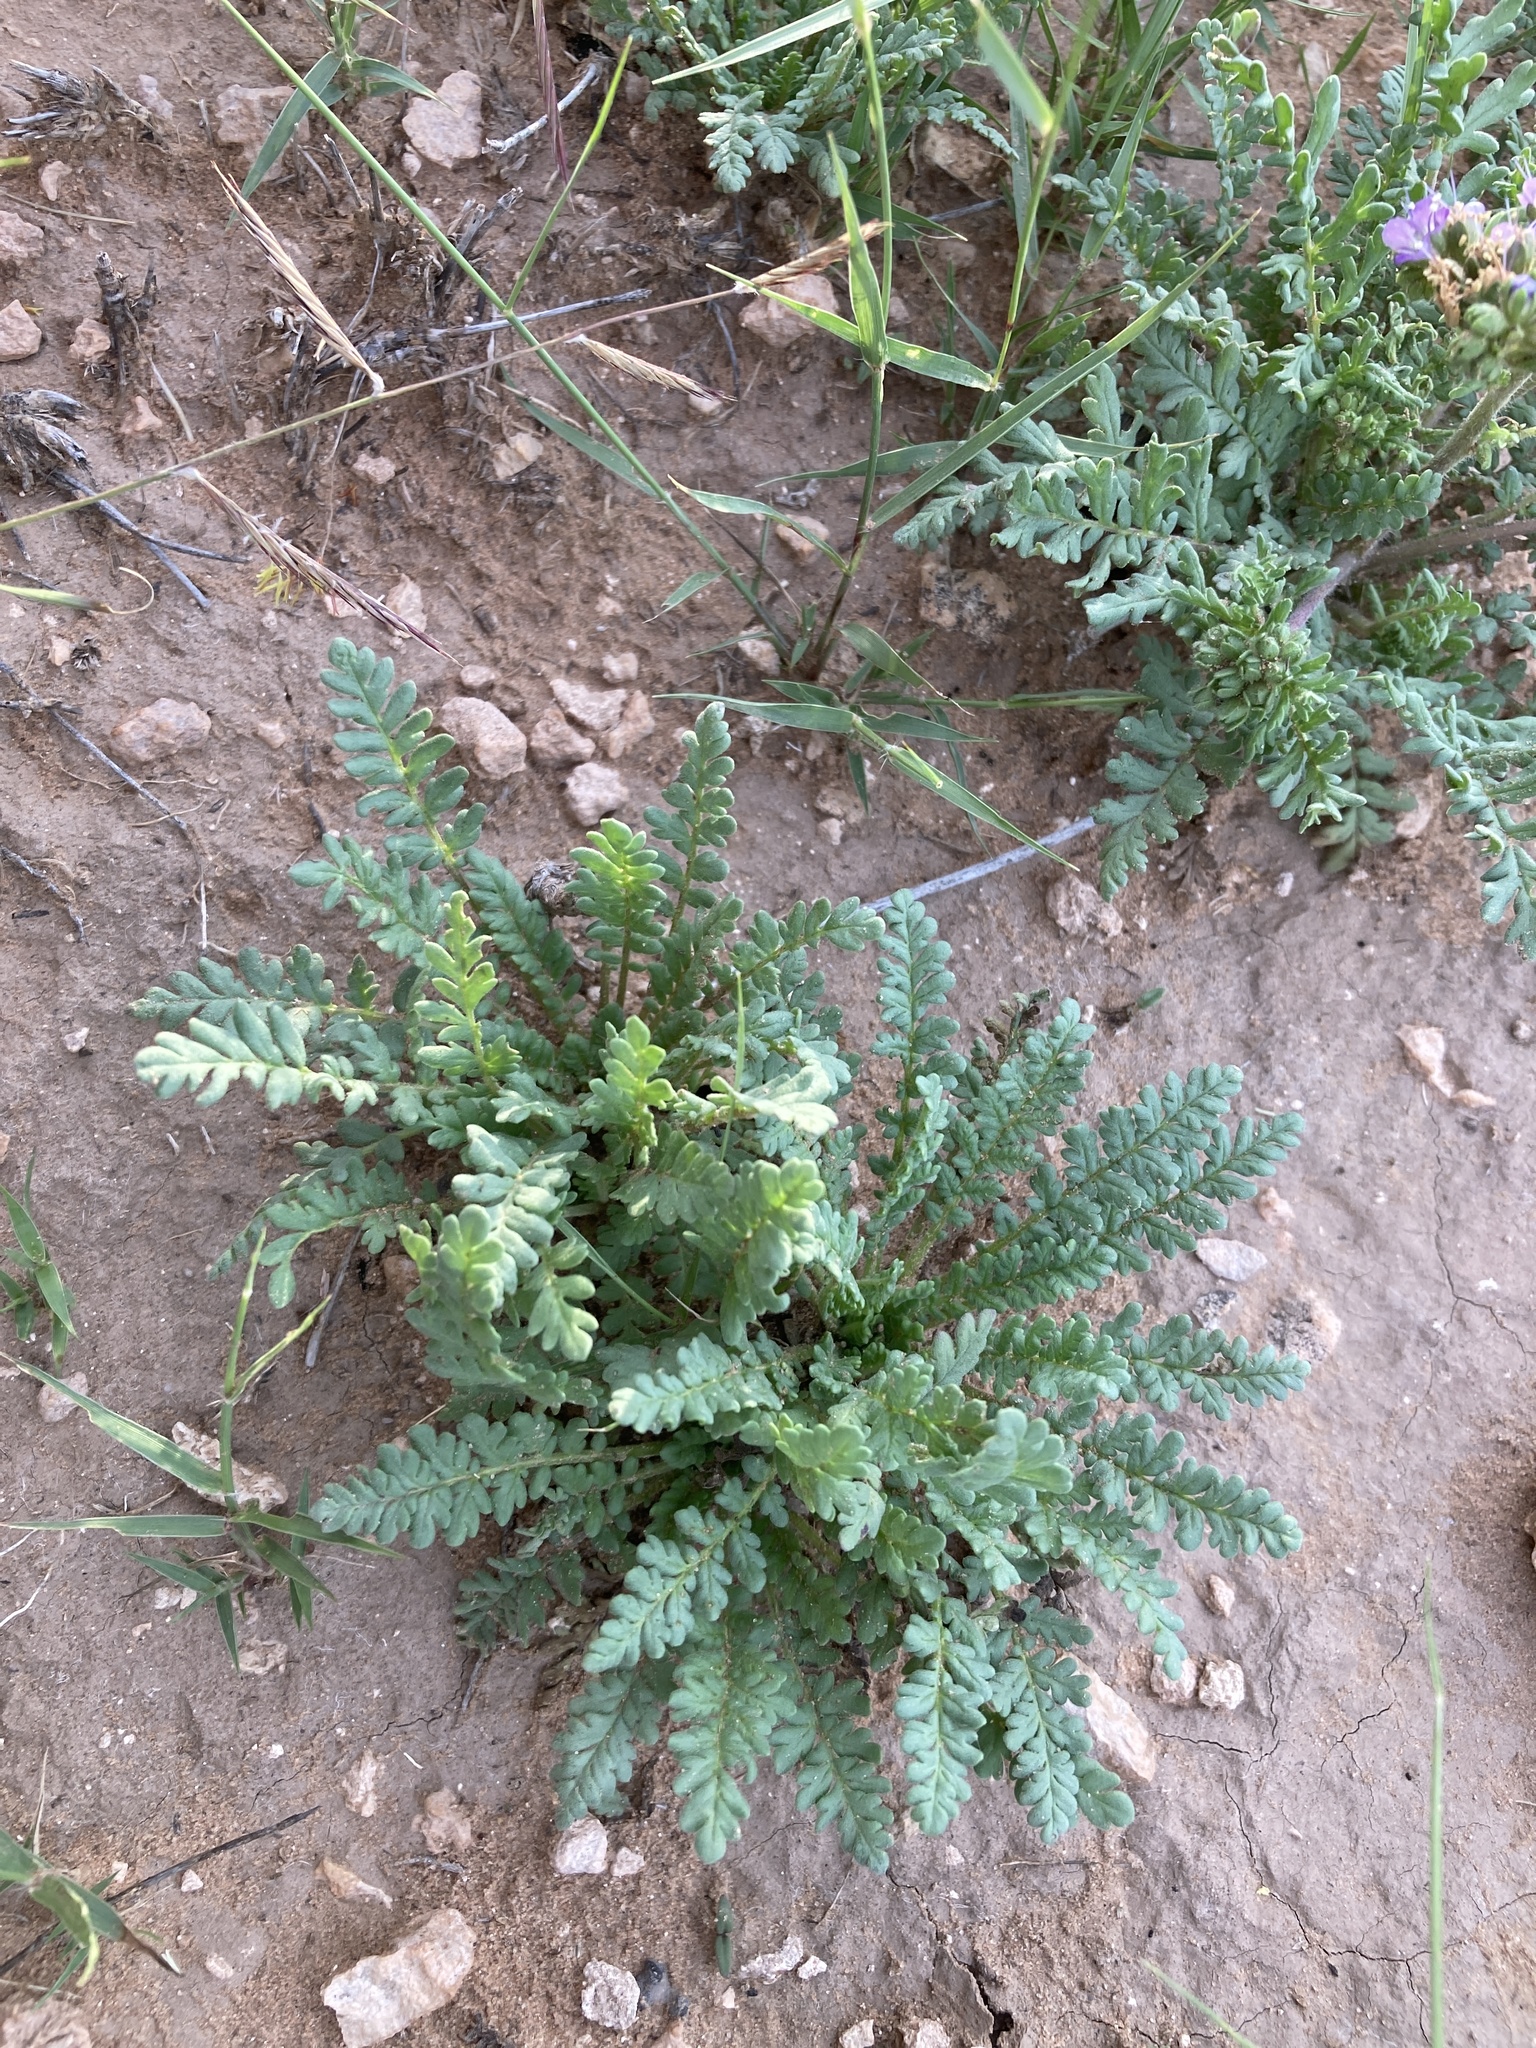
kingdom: Plantae
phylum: Tracheophyta
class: Magnoliopsida
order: Boraginales
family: Hydrophyllaceae
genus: Phacelia
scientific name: Phacelia popei
